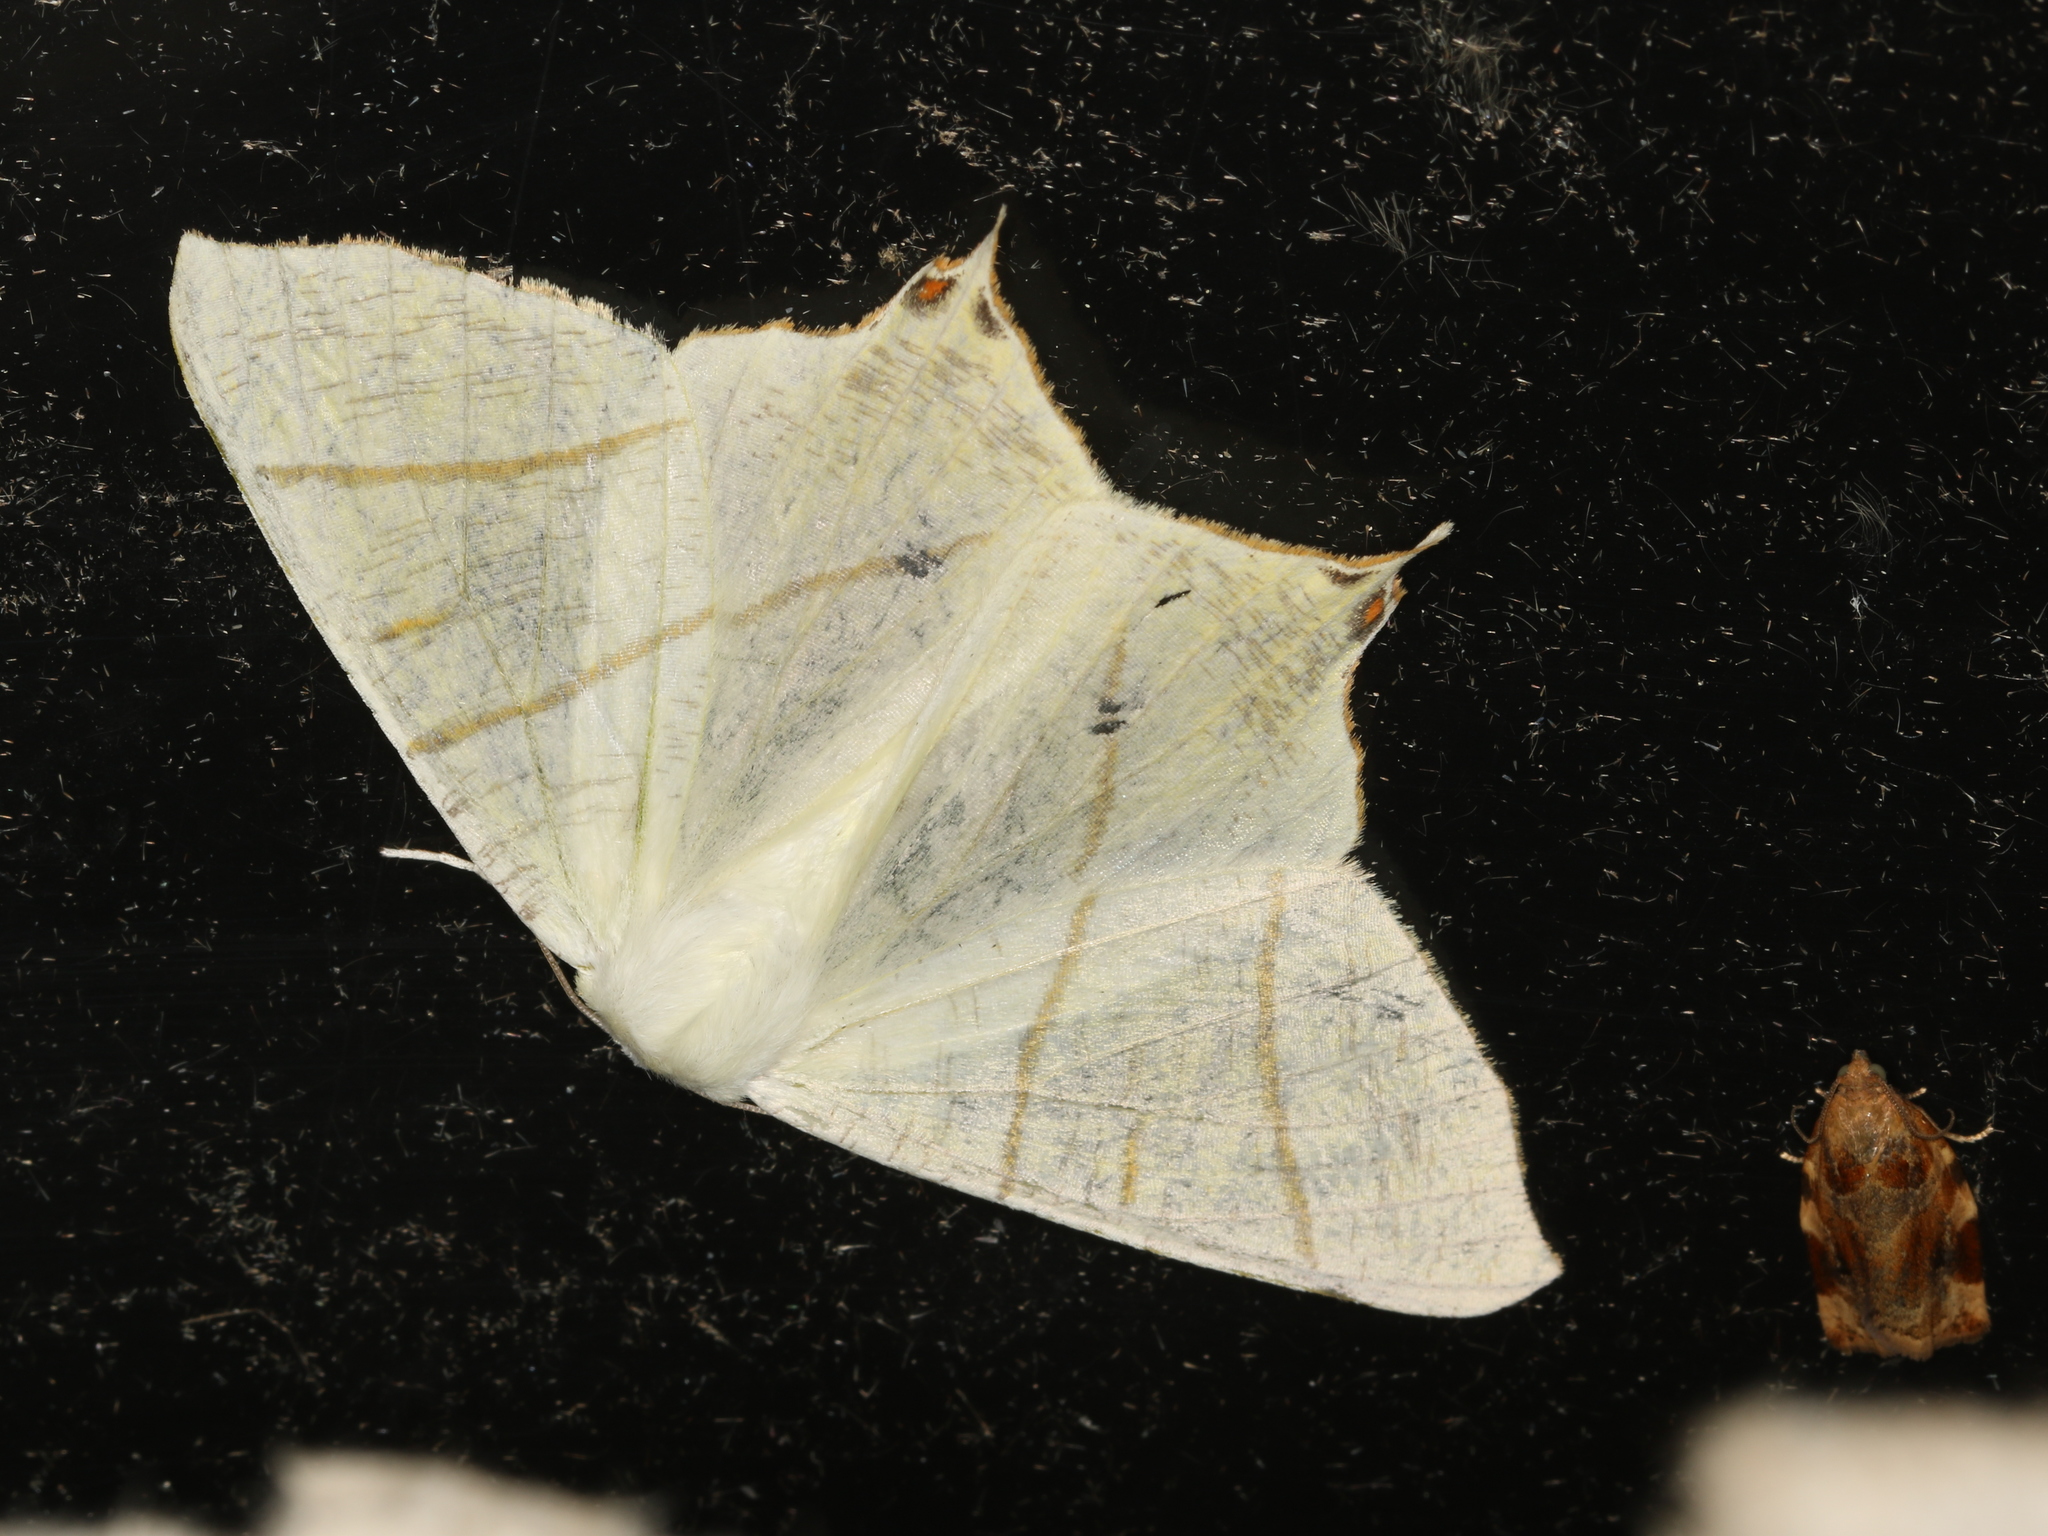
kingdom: Animalia
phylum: Arthropoda
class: Insecta
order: Lepidoptera
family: Geometridae
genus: Ourapteryx
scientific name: Ourapteryx sambucaria
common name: Swallow-tailed moth
